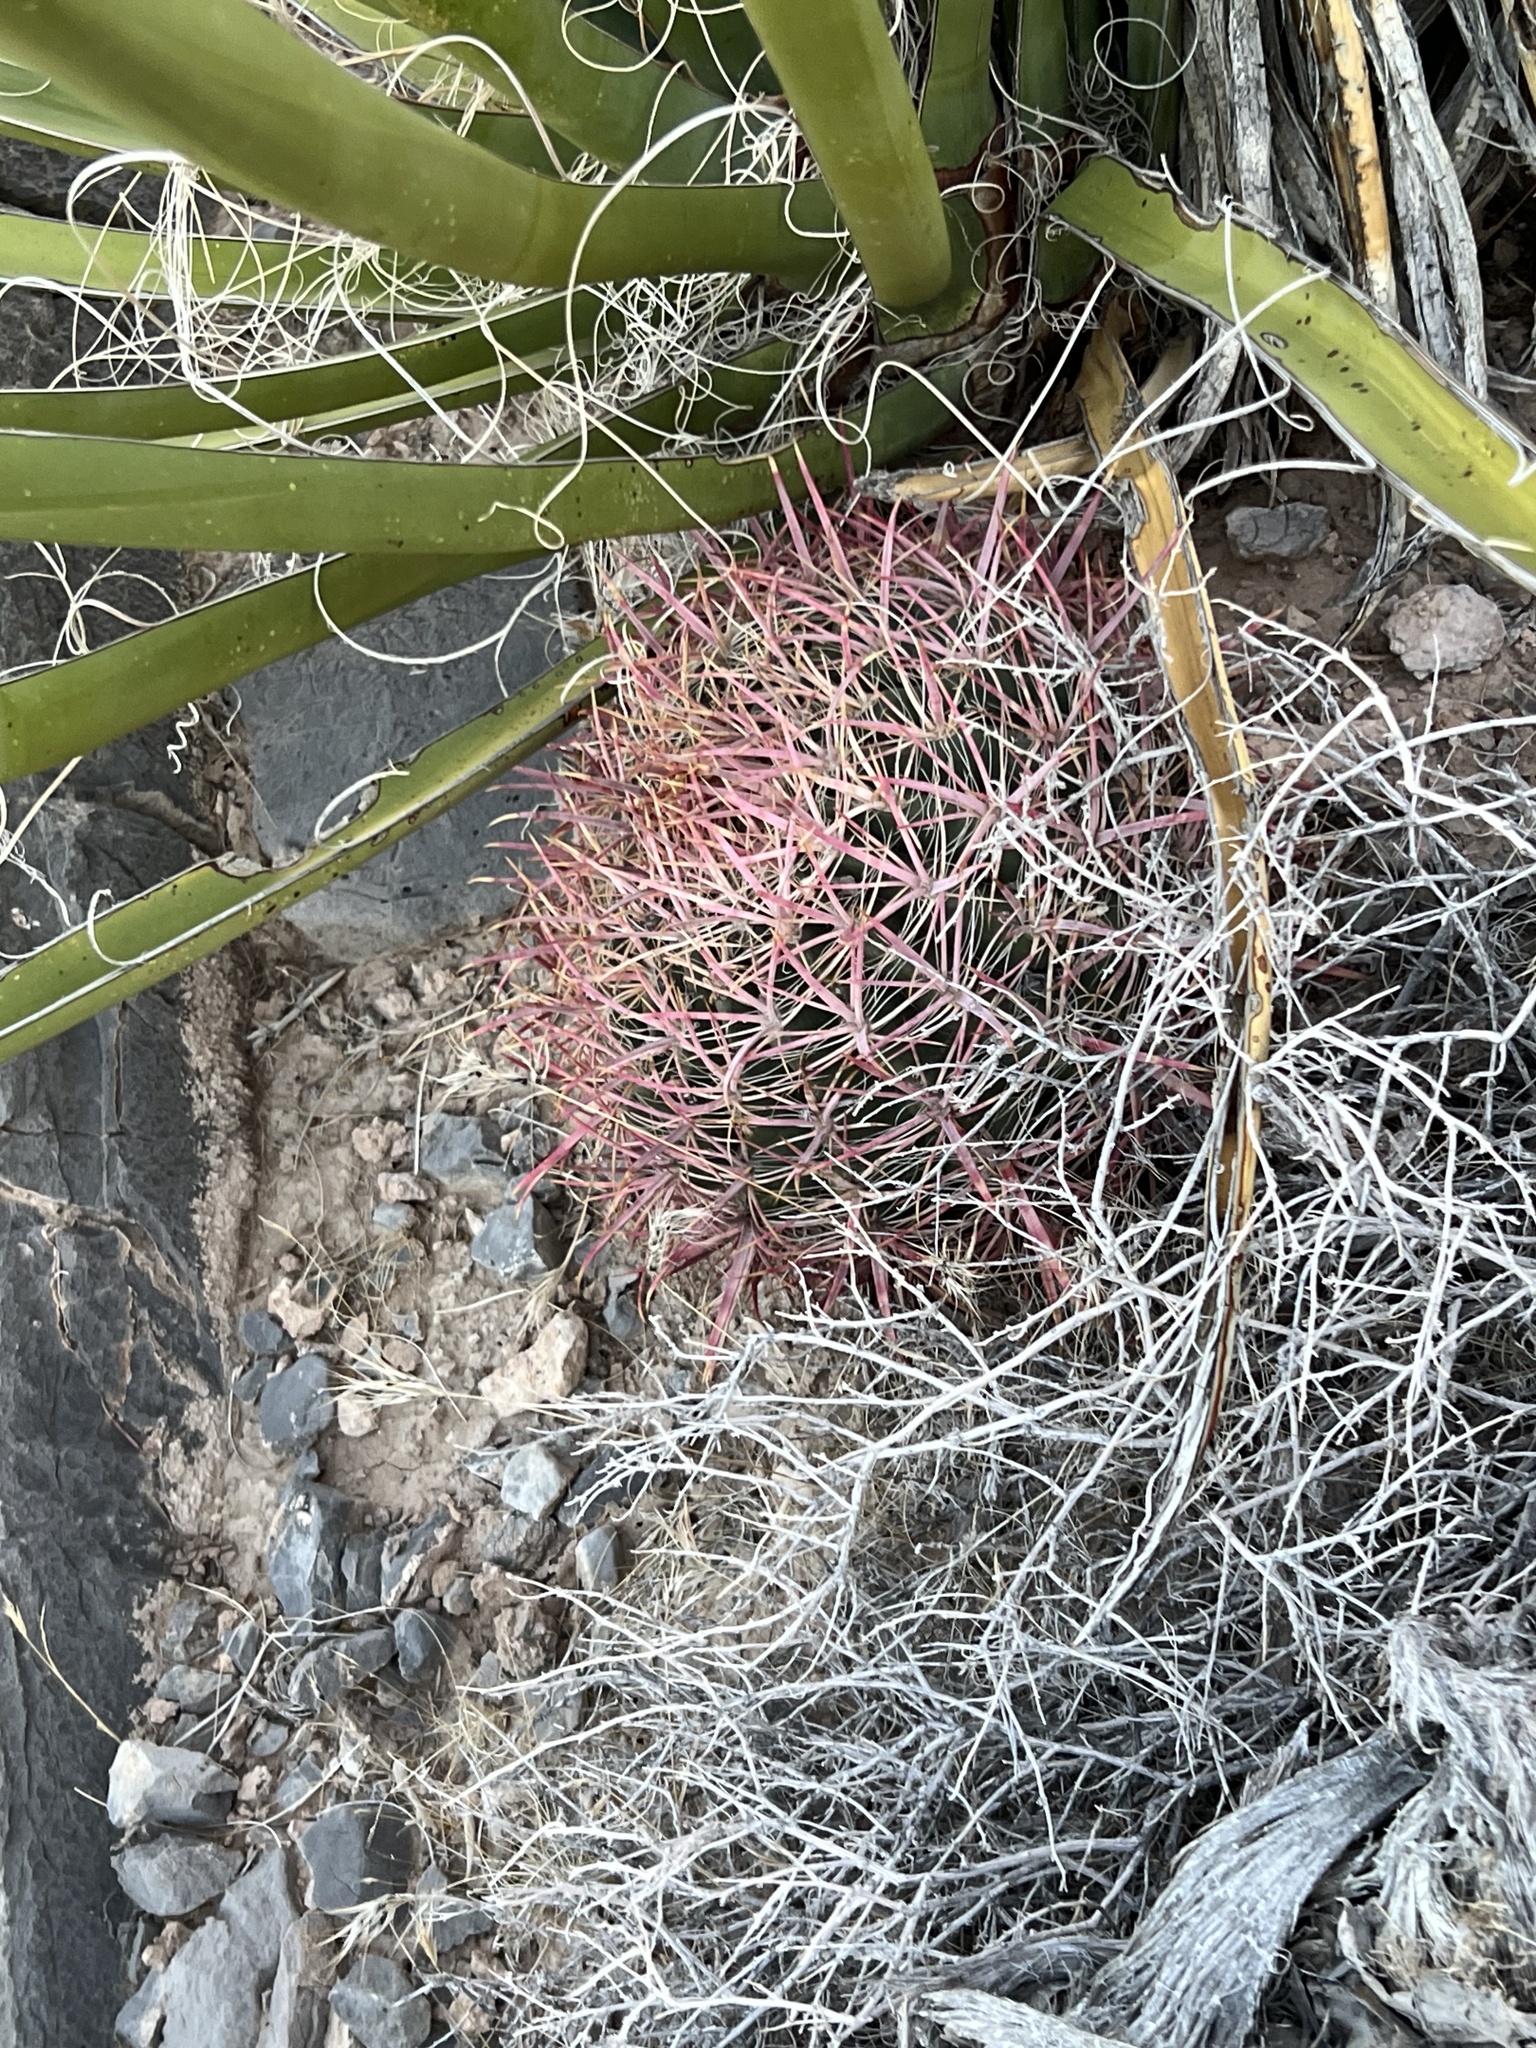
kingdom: Plantae
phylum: Tracheophyta
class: Magnoliopsida
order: Caryophyllales
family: Cactaceae
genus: Ferocactus
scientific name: Ferocactus cylindraceus
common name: California barrel cactus
